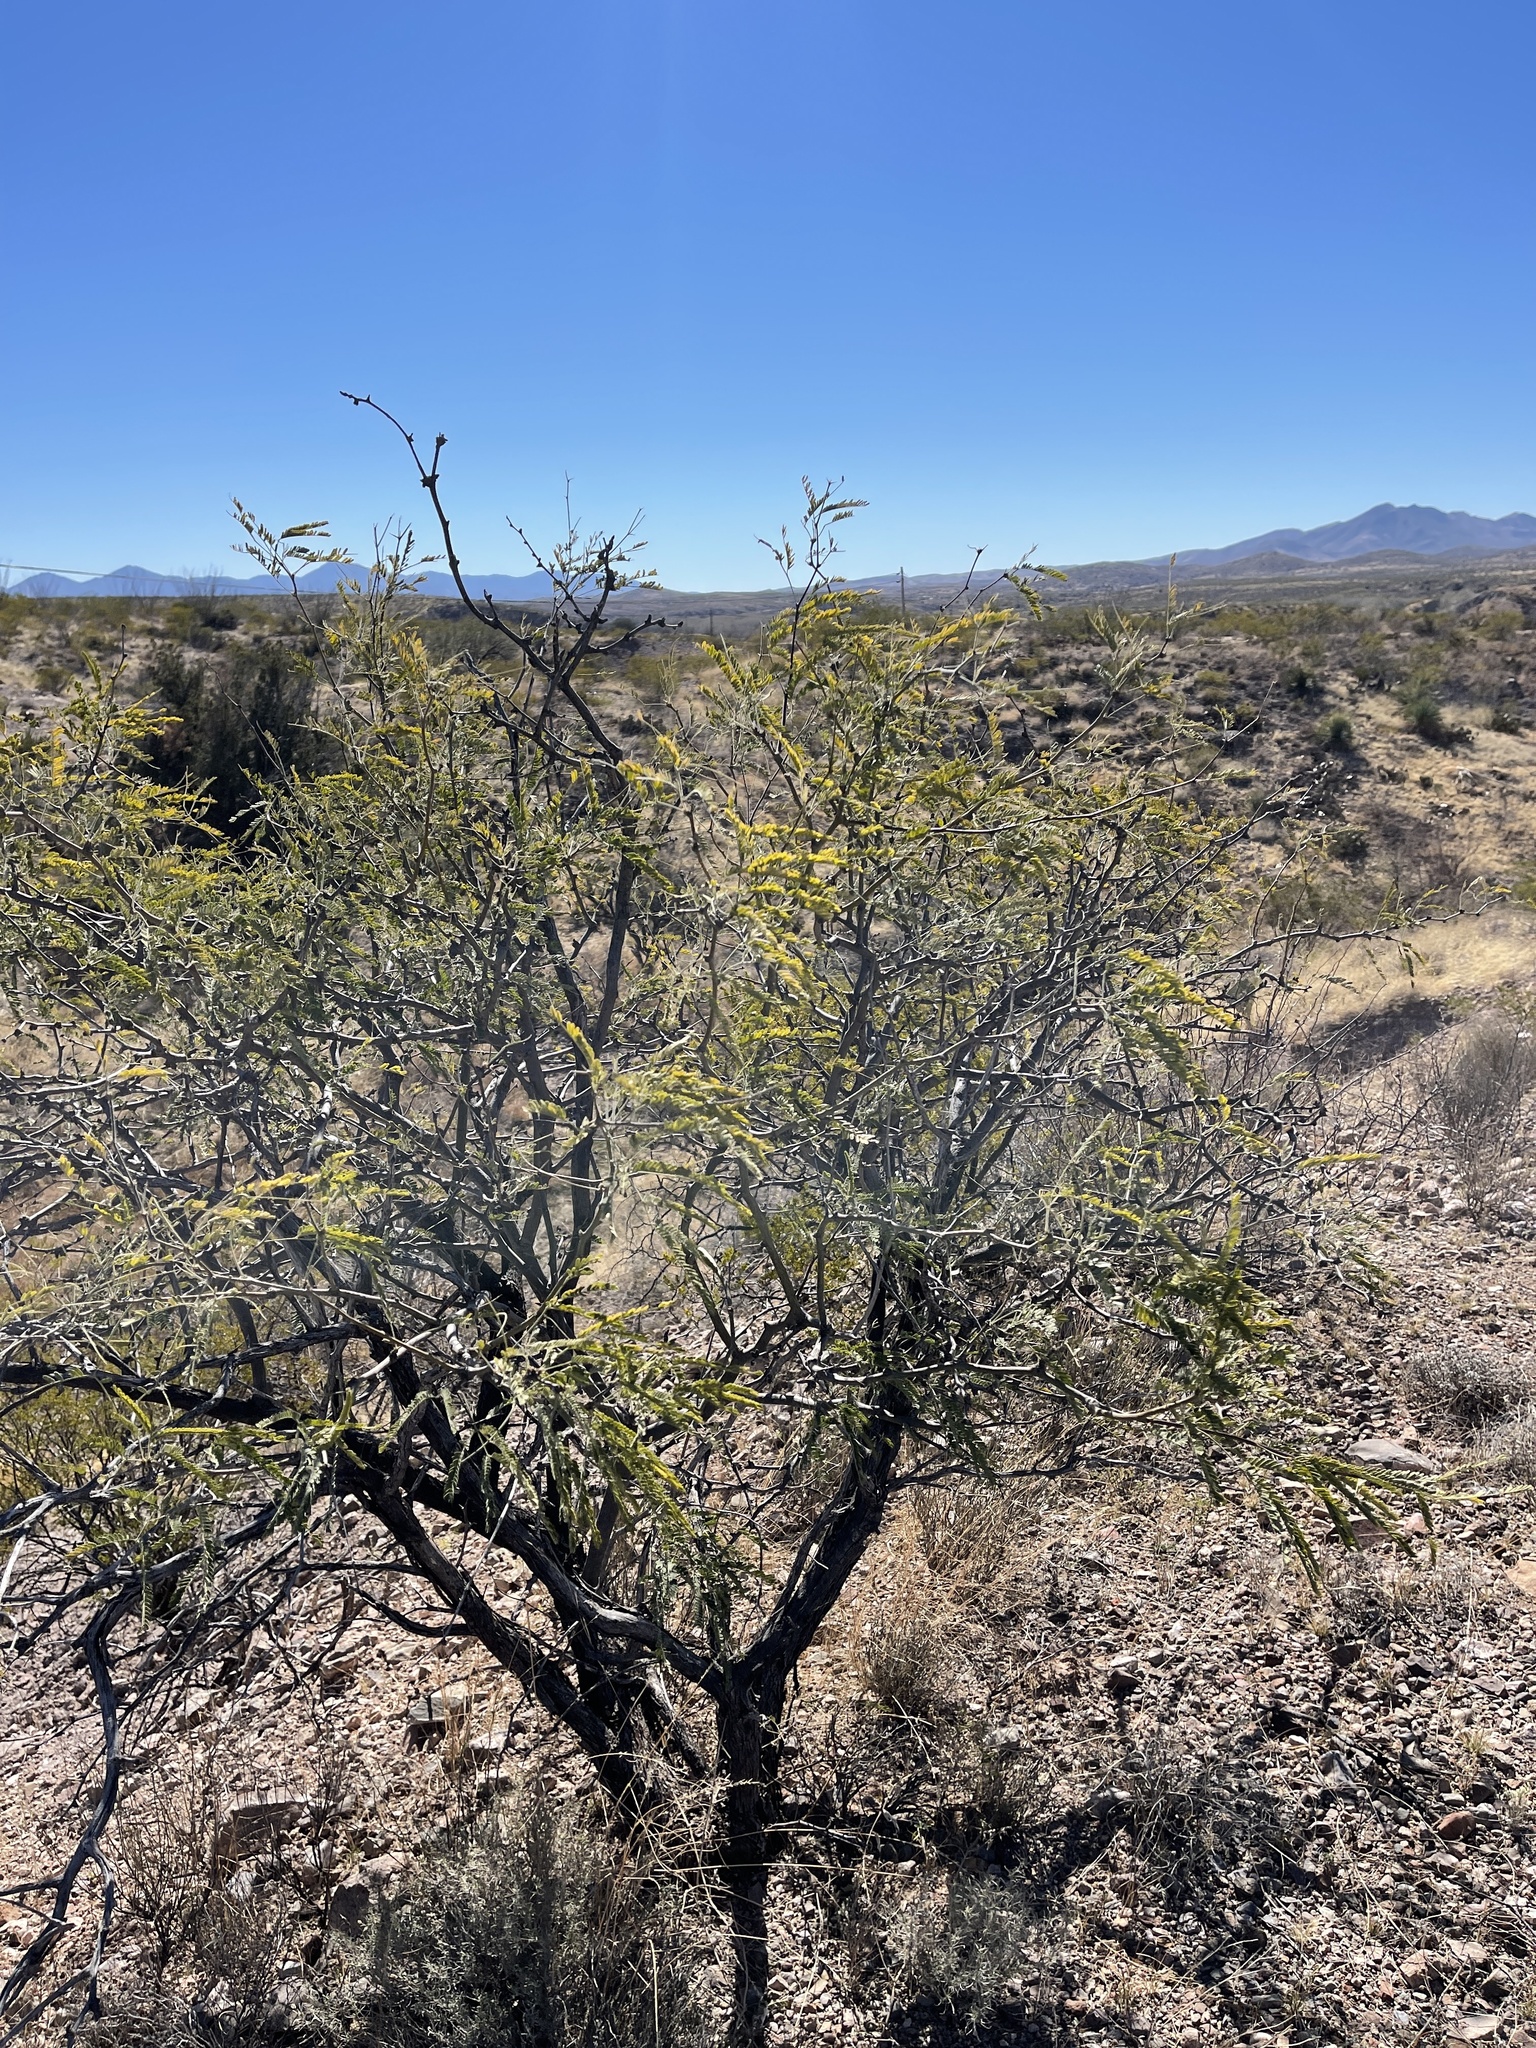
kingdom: Plantae
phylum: Tracheophyta
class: Magnoliopsida
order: Fabales
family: Fabaceae
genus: Prosopis
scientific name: Prosopis velutina
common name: Velvet mesquite
